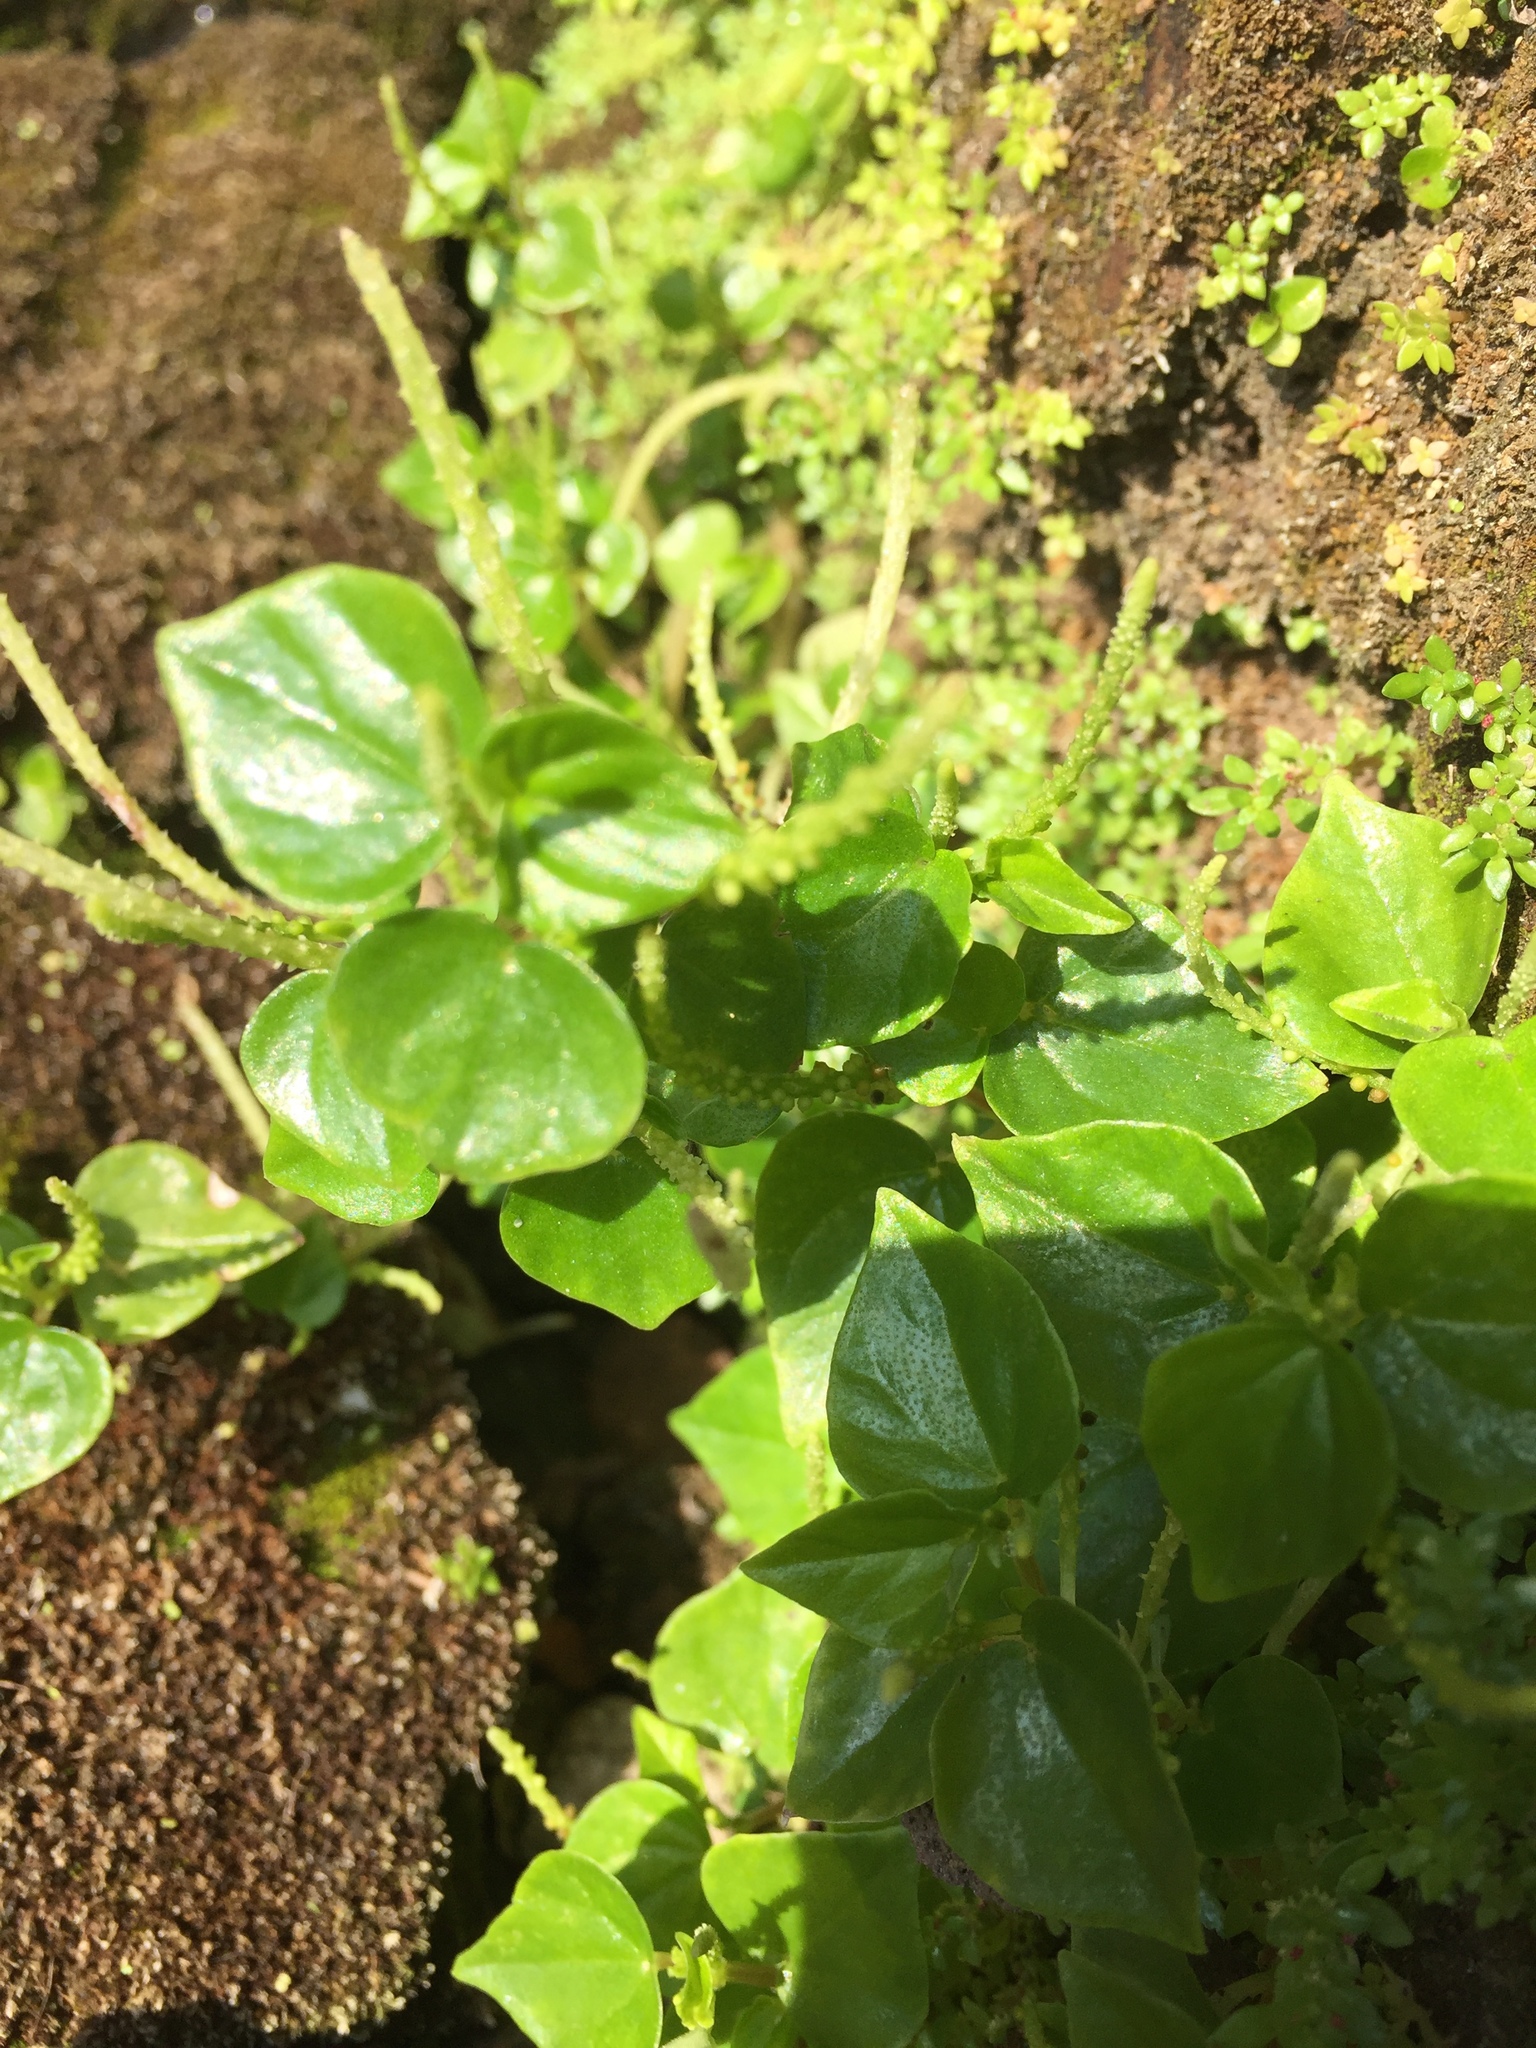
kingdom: Plantae
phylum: Tracheophyta
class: Magnoliopsida
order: Piperales
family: Piperaceae
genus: Peperomia
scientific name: Peperomia pellucida
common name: Man to man
